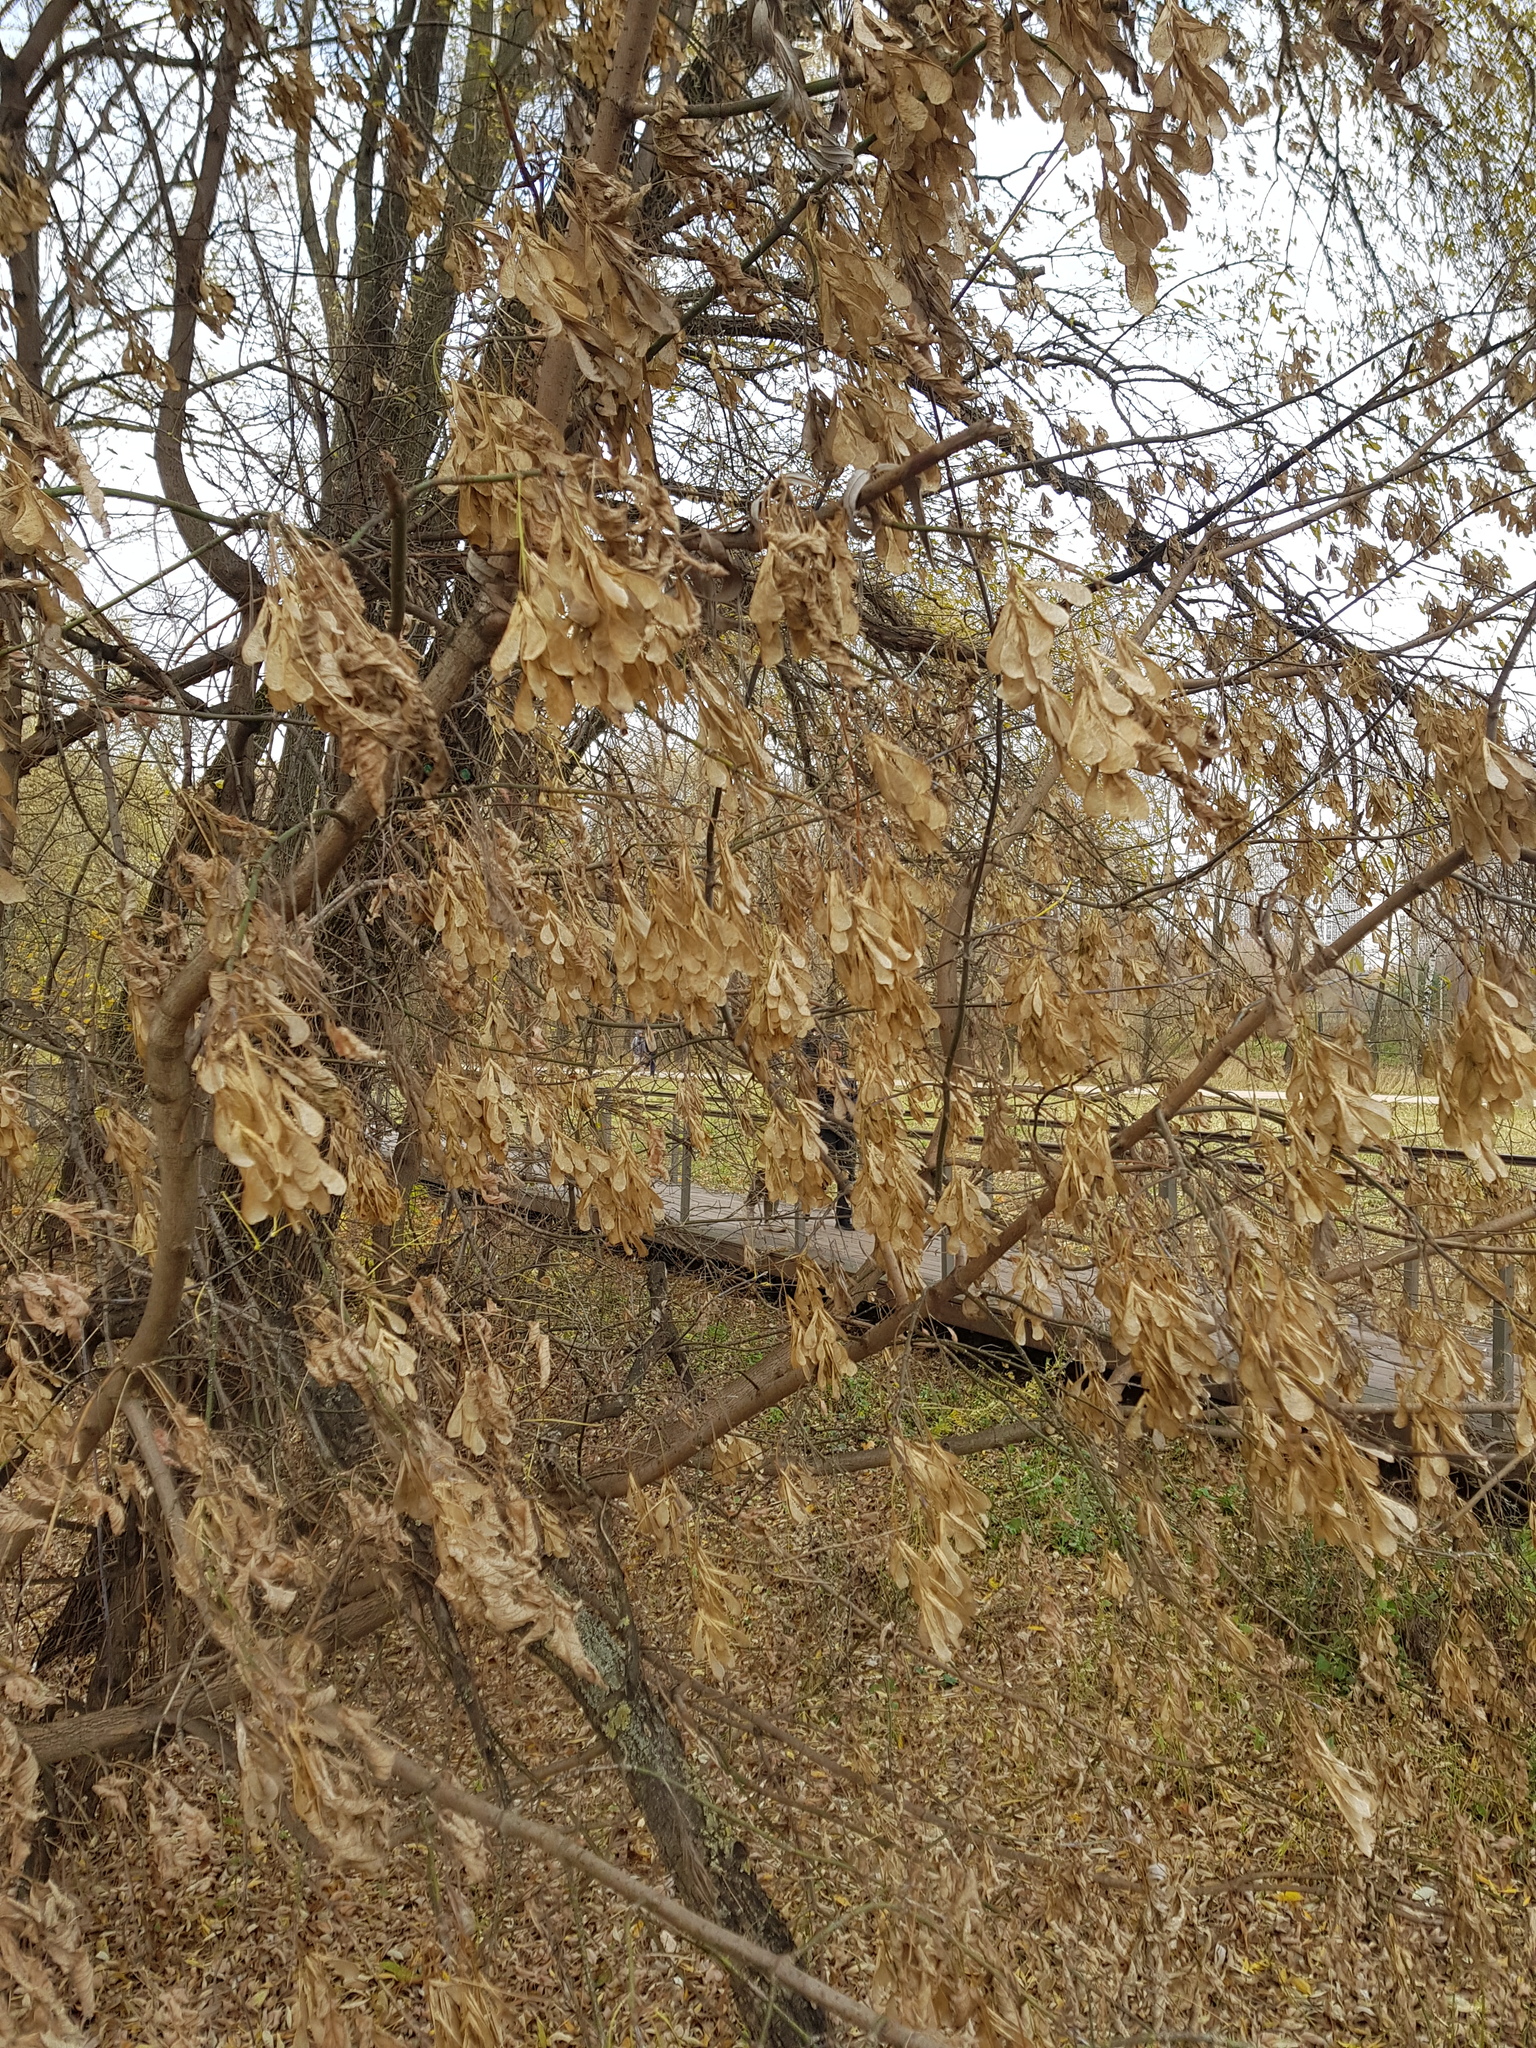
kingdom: Plantae
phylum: Tracheophyta
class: Magnoliopsida
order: Sapindales
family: Sapindaceae
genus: Acer
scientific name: Acer negundo
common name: Ashleaf maple
